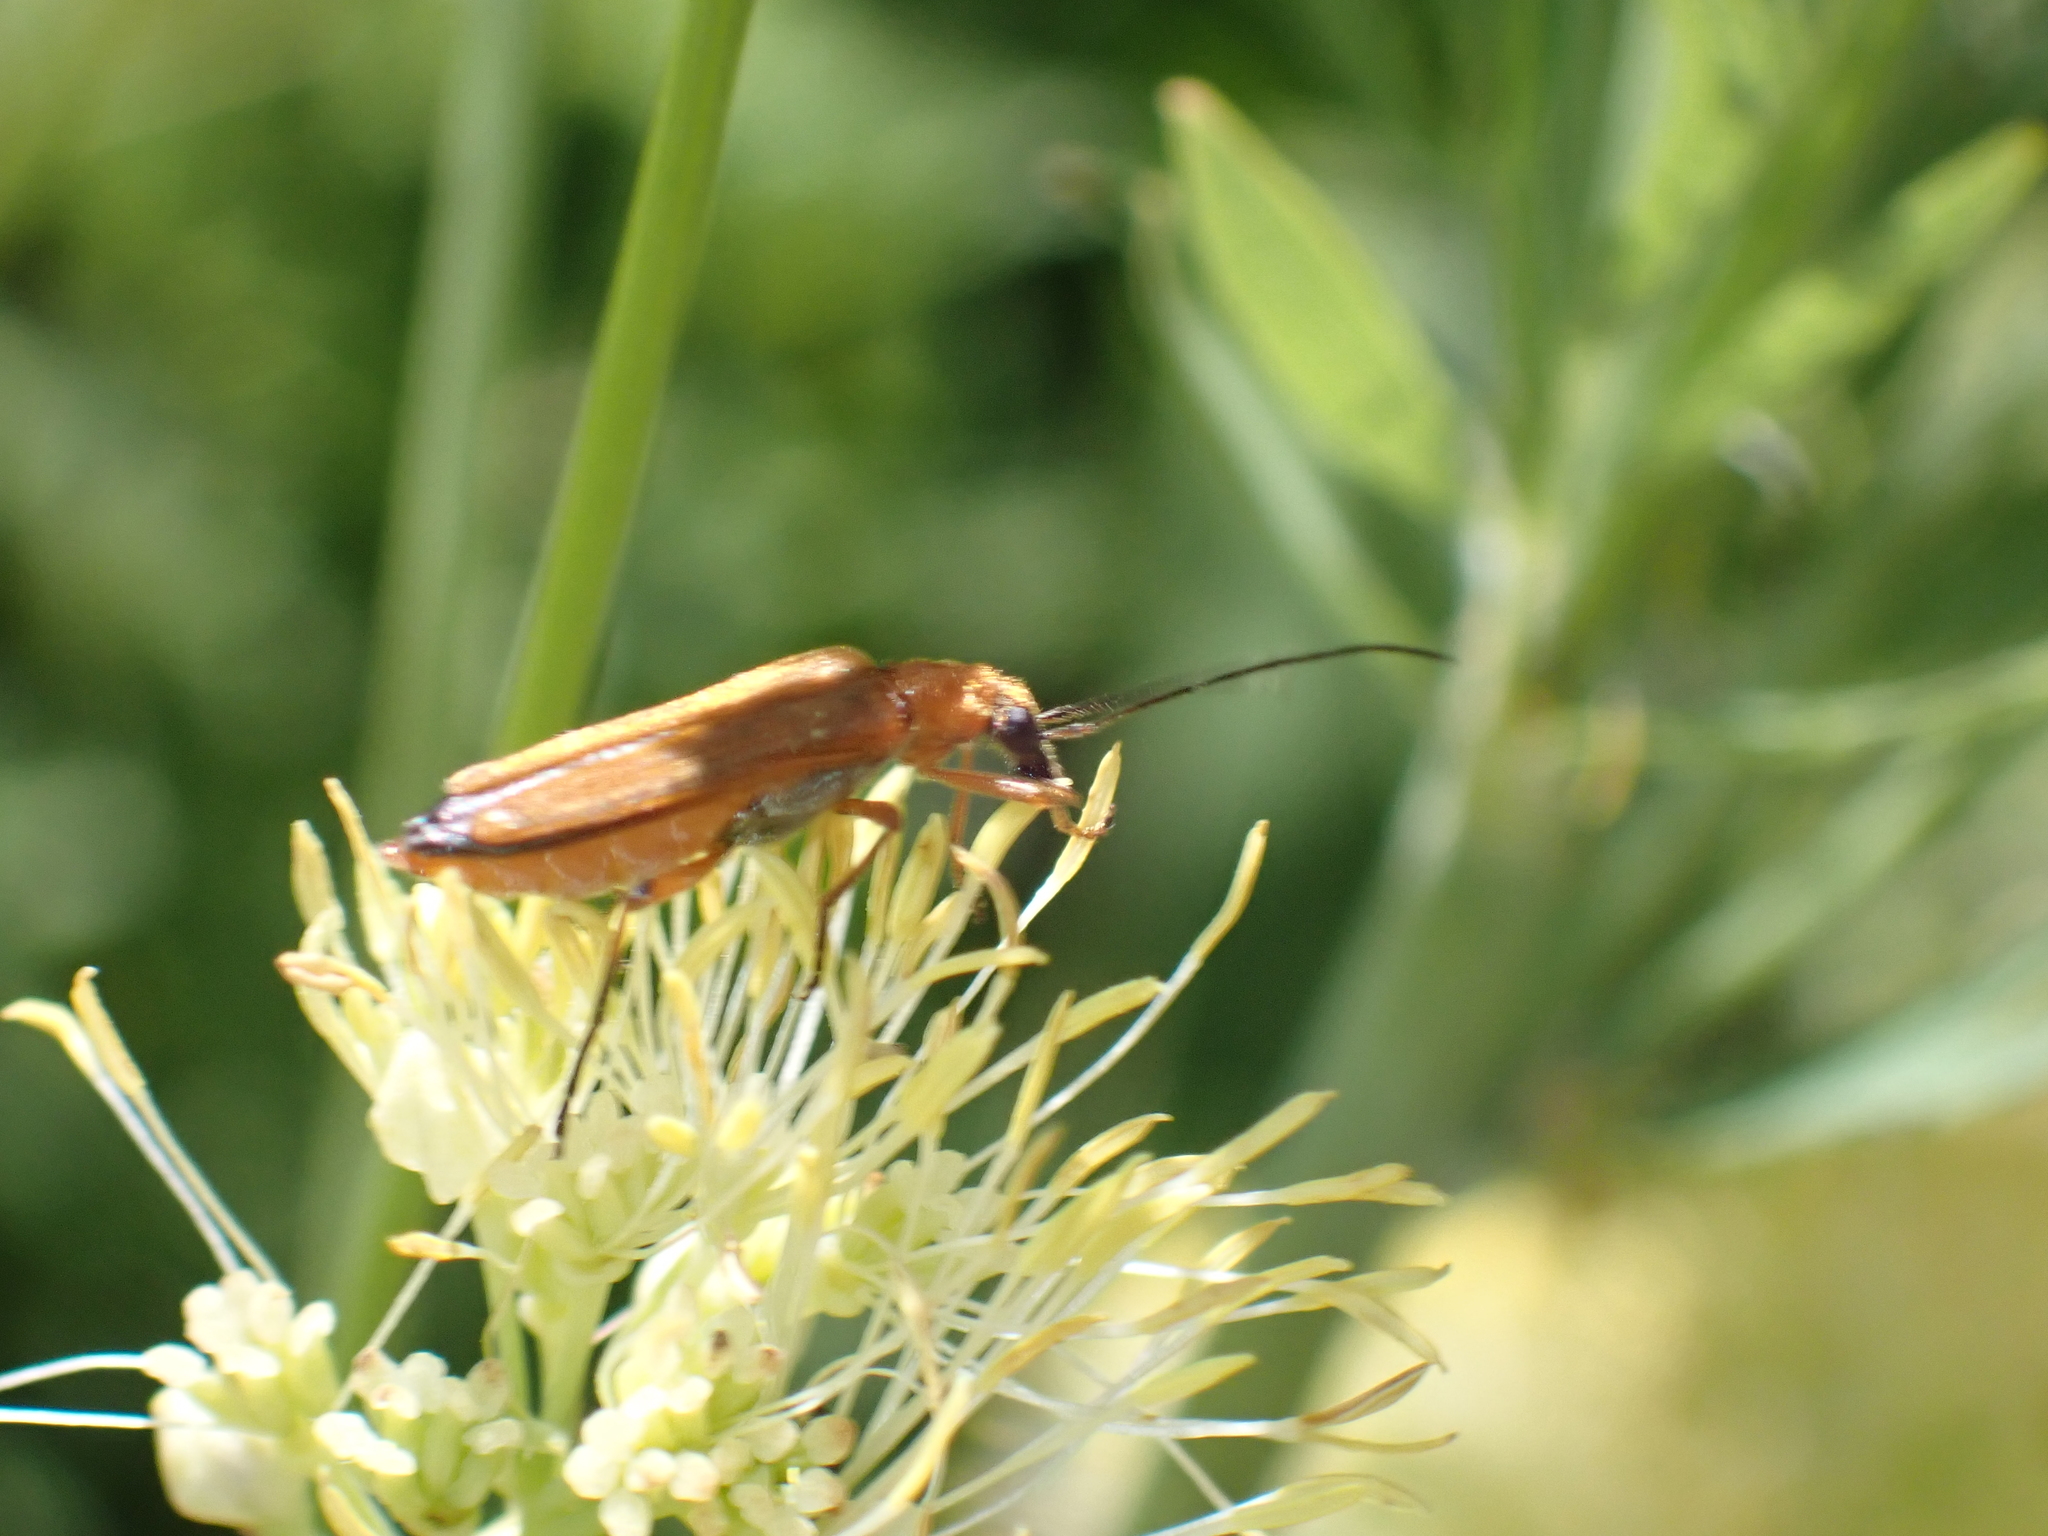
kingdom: Animalia
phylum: Arthropoda
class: Insecta
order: Coleoptera
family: Oedemeridae
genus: Oedemera
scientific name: Oedemera podagrariae
